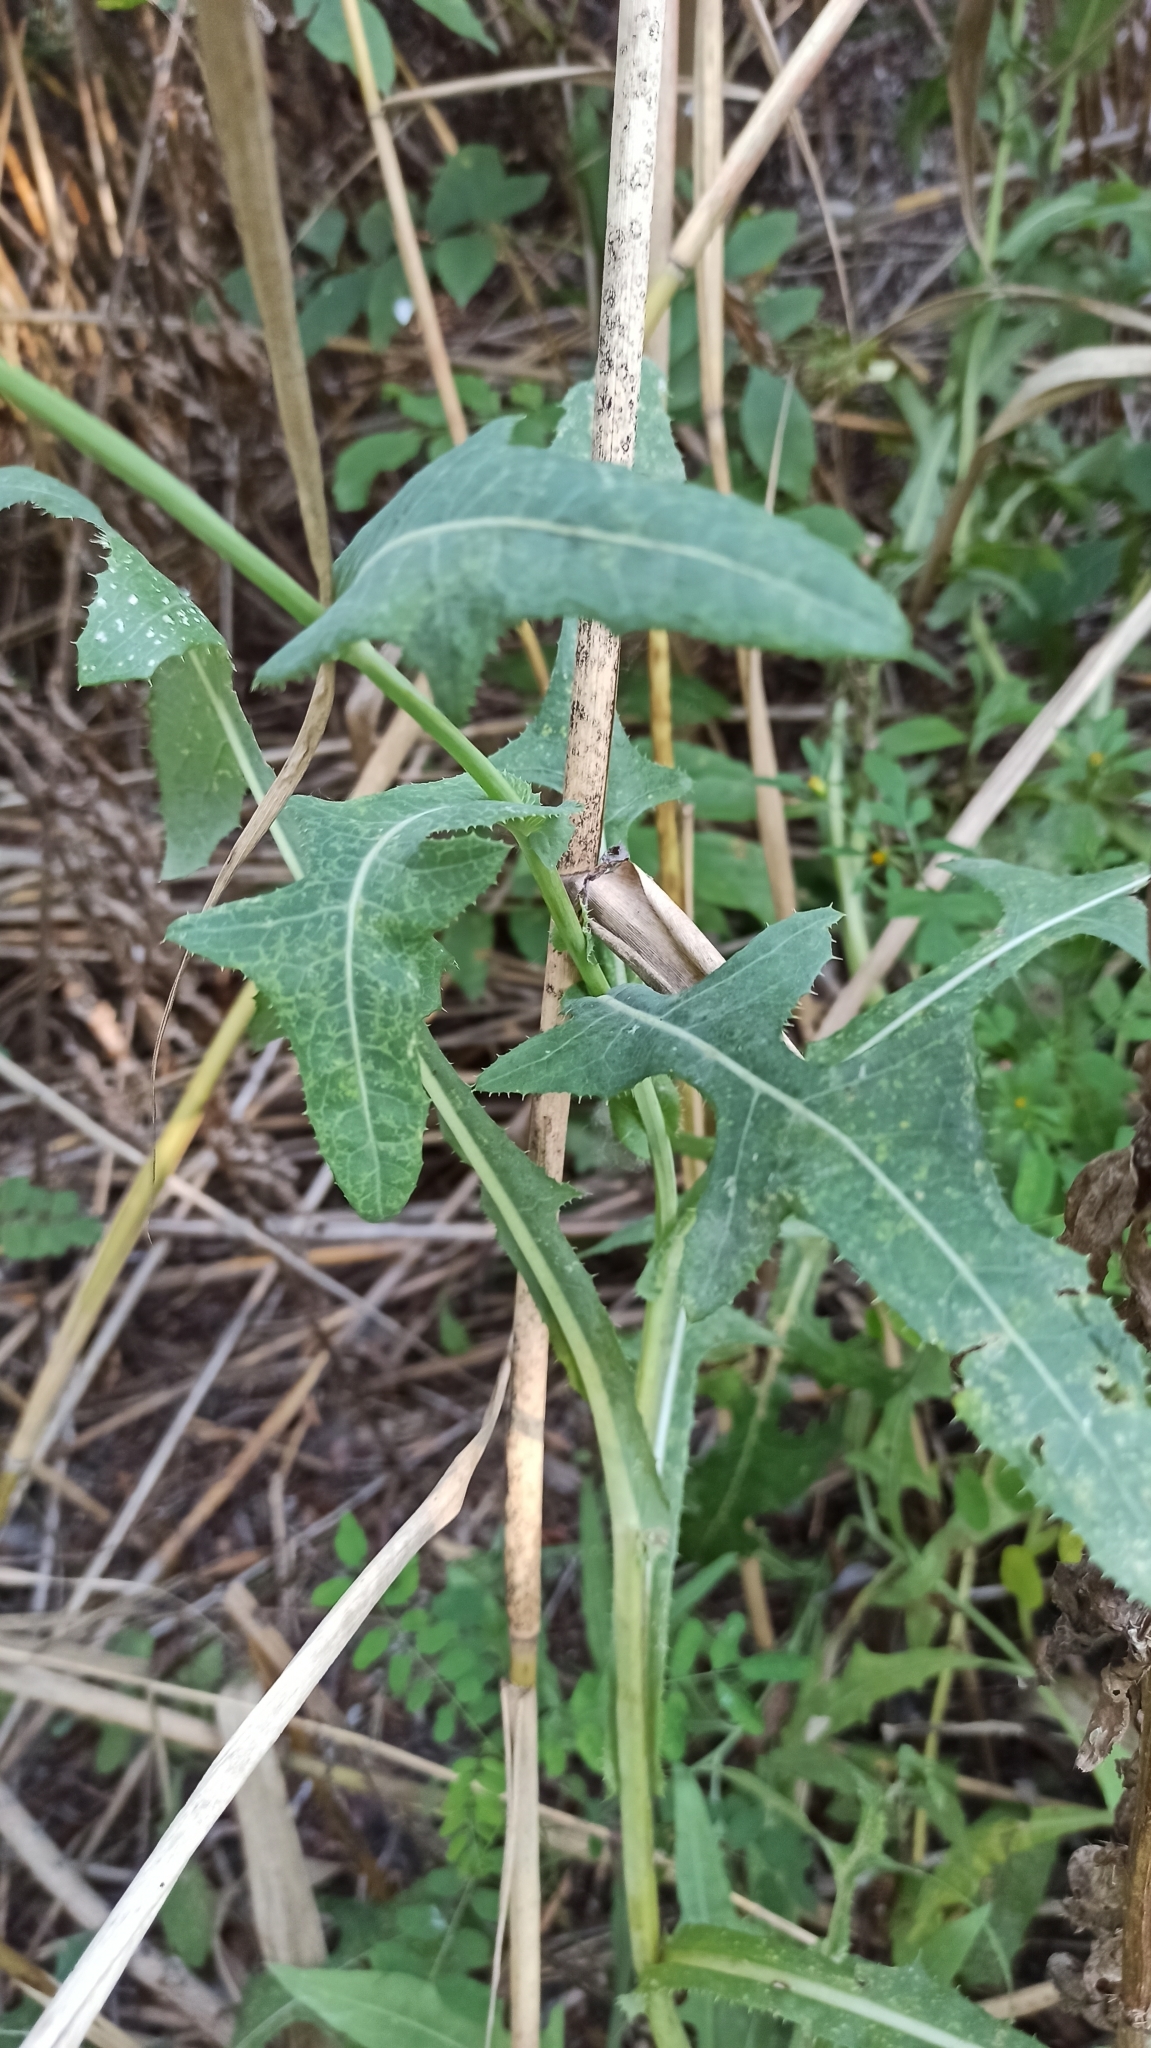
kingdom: Plantae
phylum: Tracheophyta
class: Magnoliopsida
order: Asterales
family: Asteraceae
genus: Sonchus
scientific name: Sonchus arvensis
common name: Perennial sow-thistle
